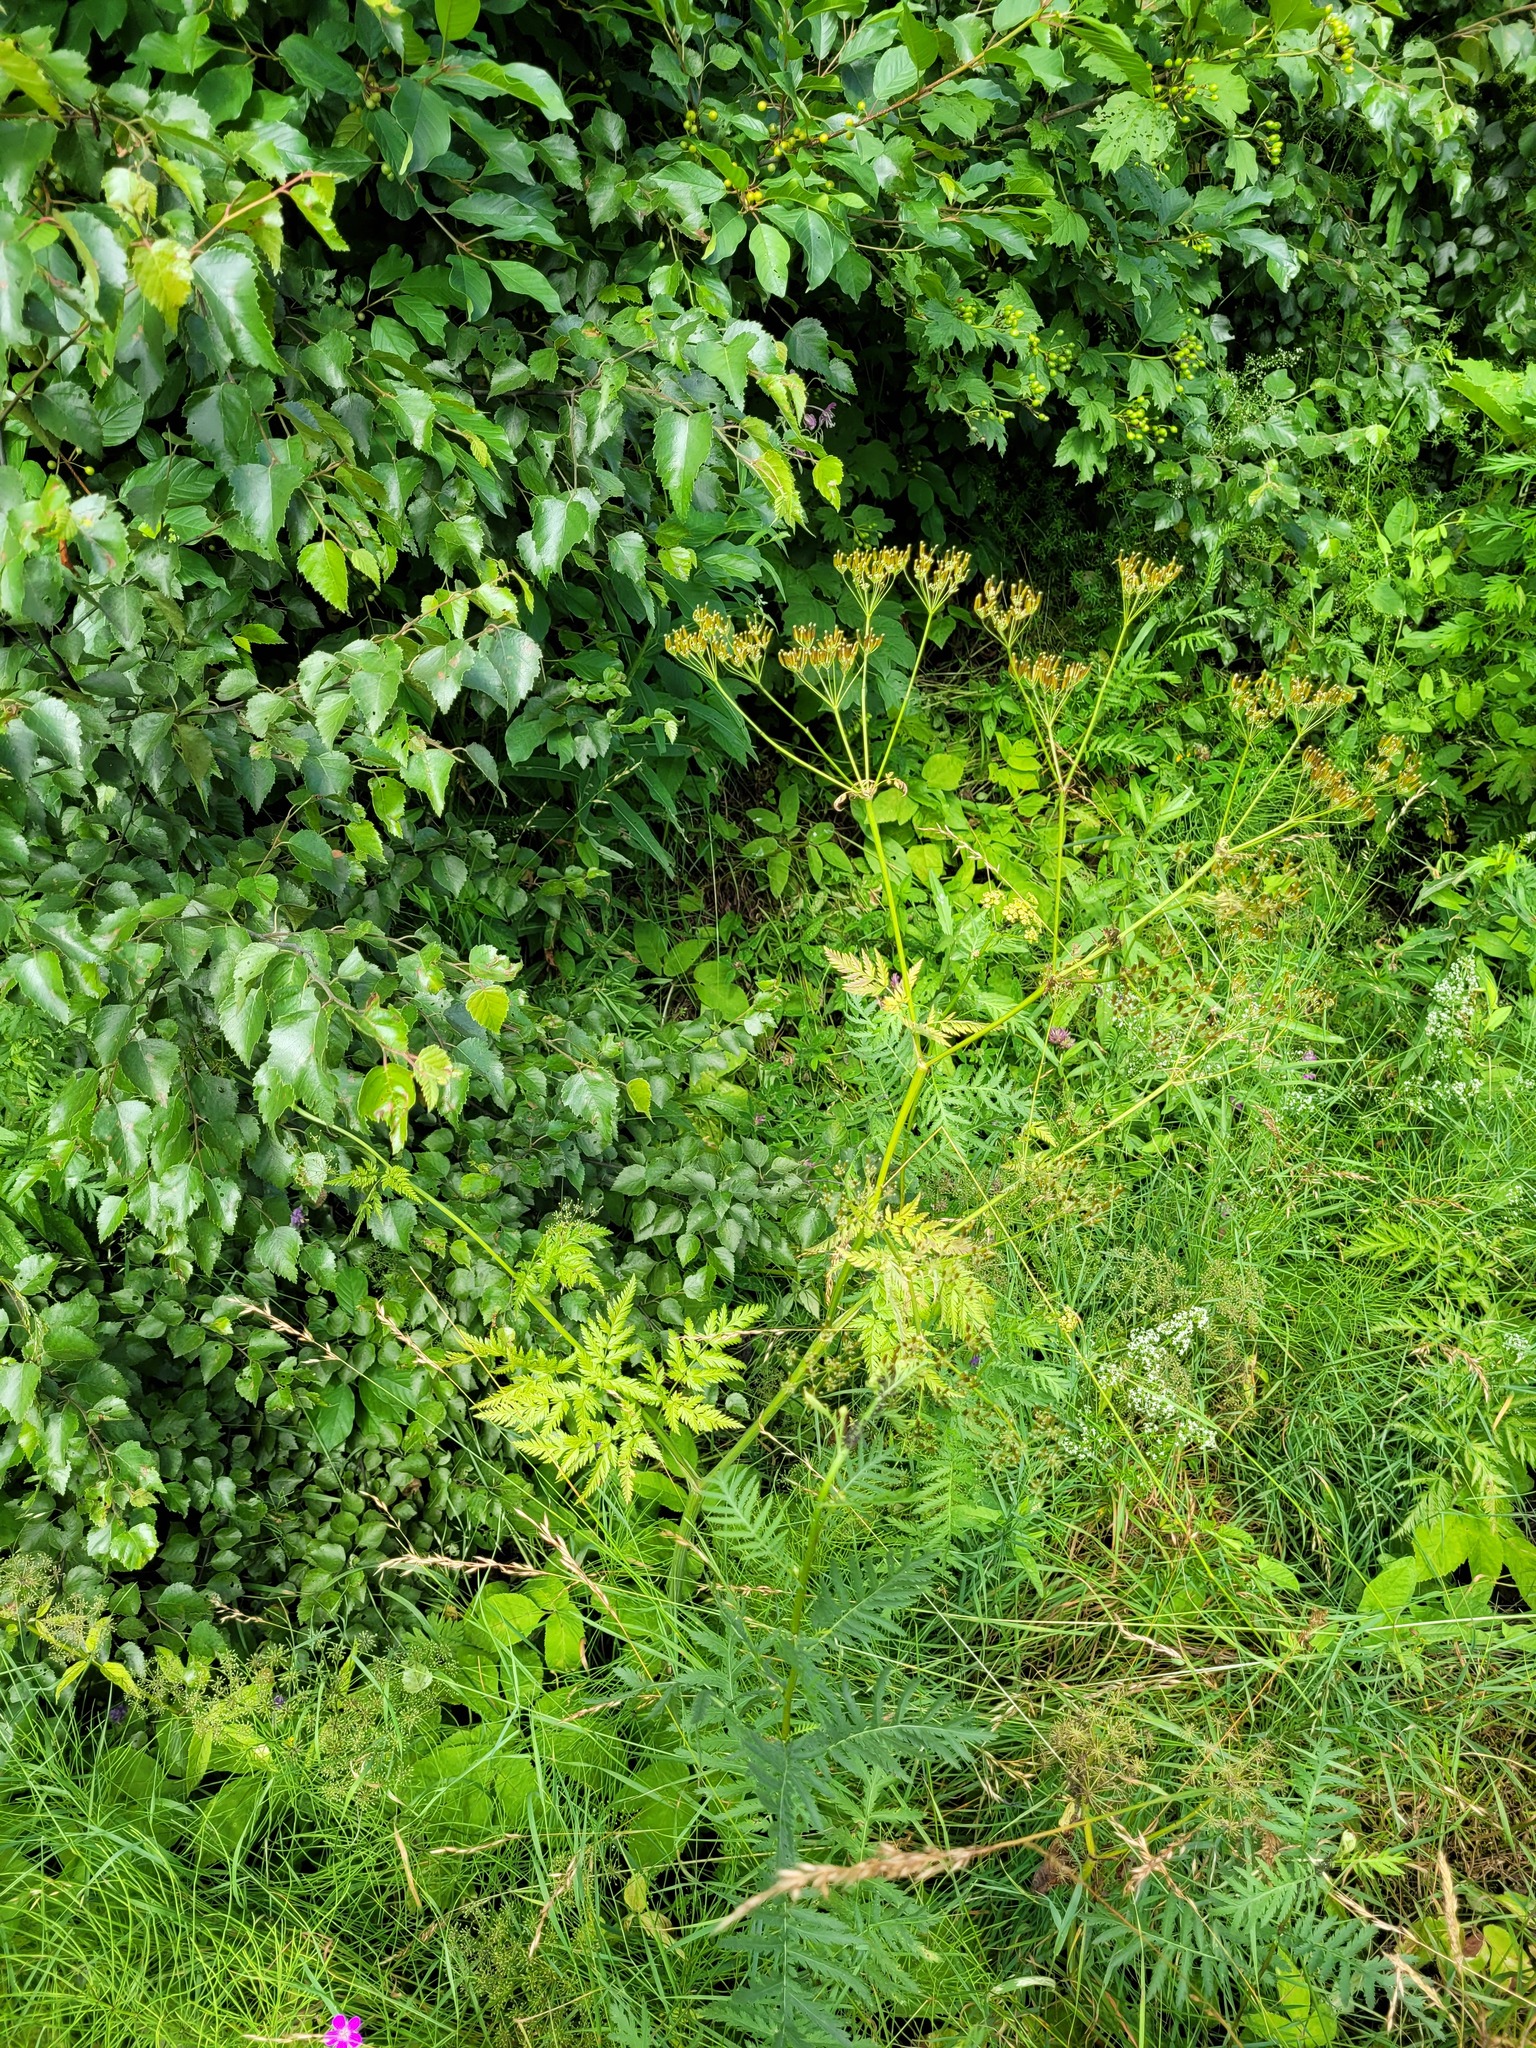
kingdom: Plantae
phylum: Tracheophyta
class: Magnoliopsida
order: Apiales
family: Apiaceae
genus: Anthriscus
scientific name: Anthriscus sylvestris
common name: Cow parsley
